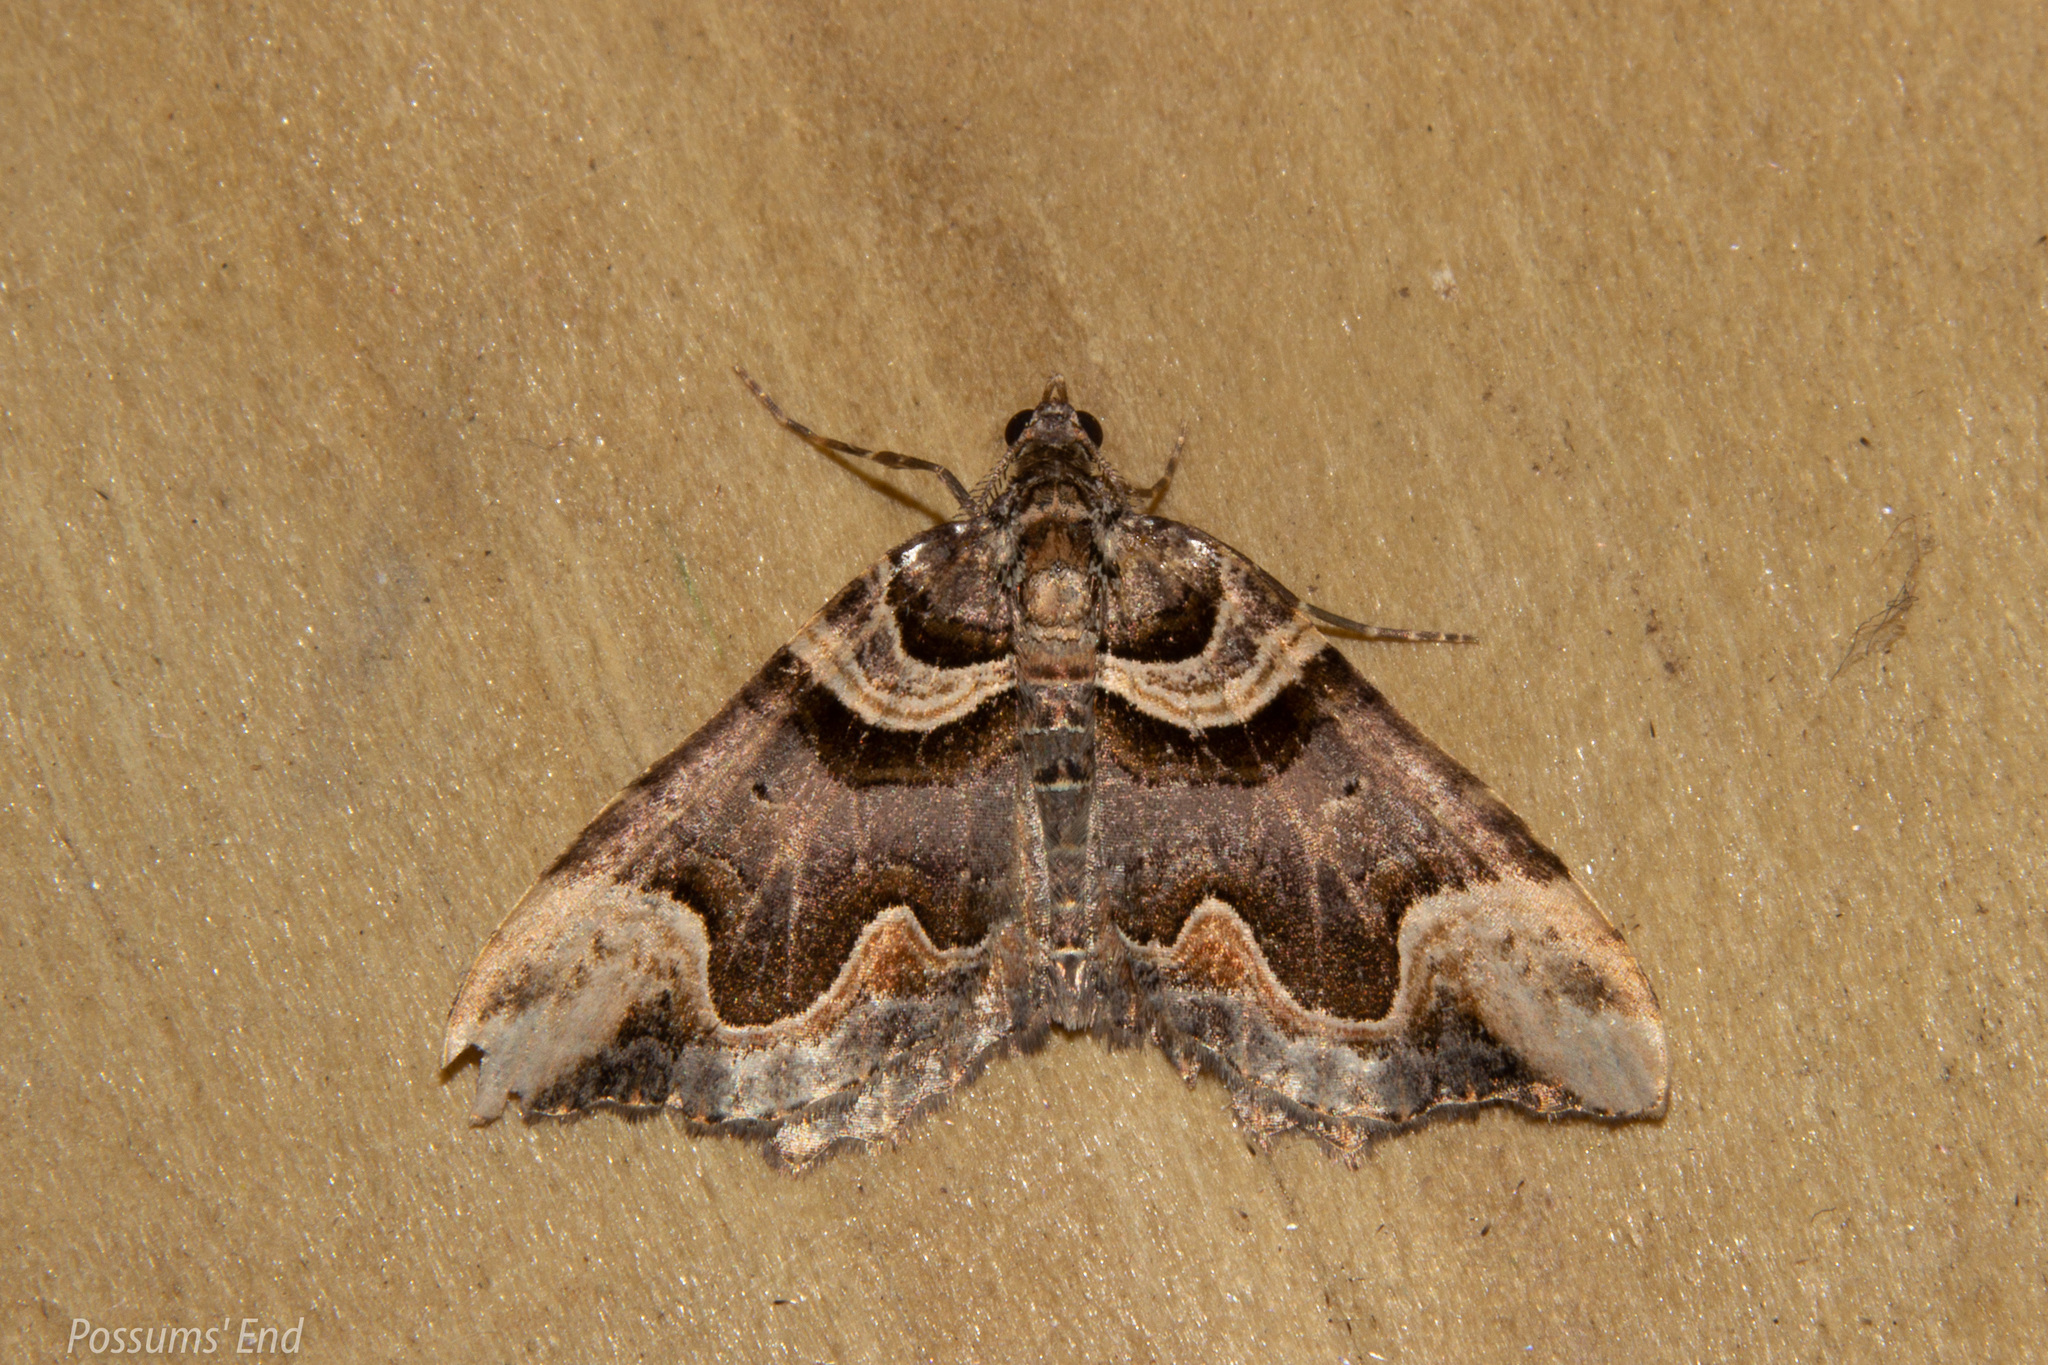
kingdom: Animalia
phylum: Arthropoda
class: Insecta
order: Lepidoptera
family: Geometridae
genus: Asaphodes
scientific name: Asaphodes chlamydota
